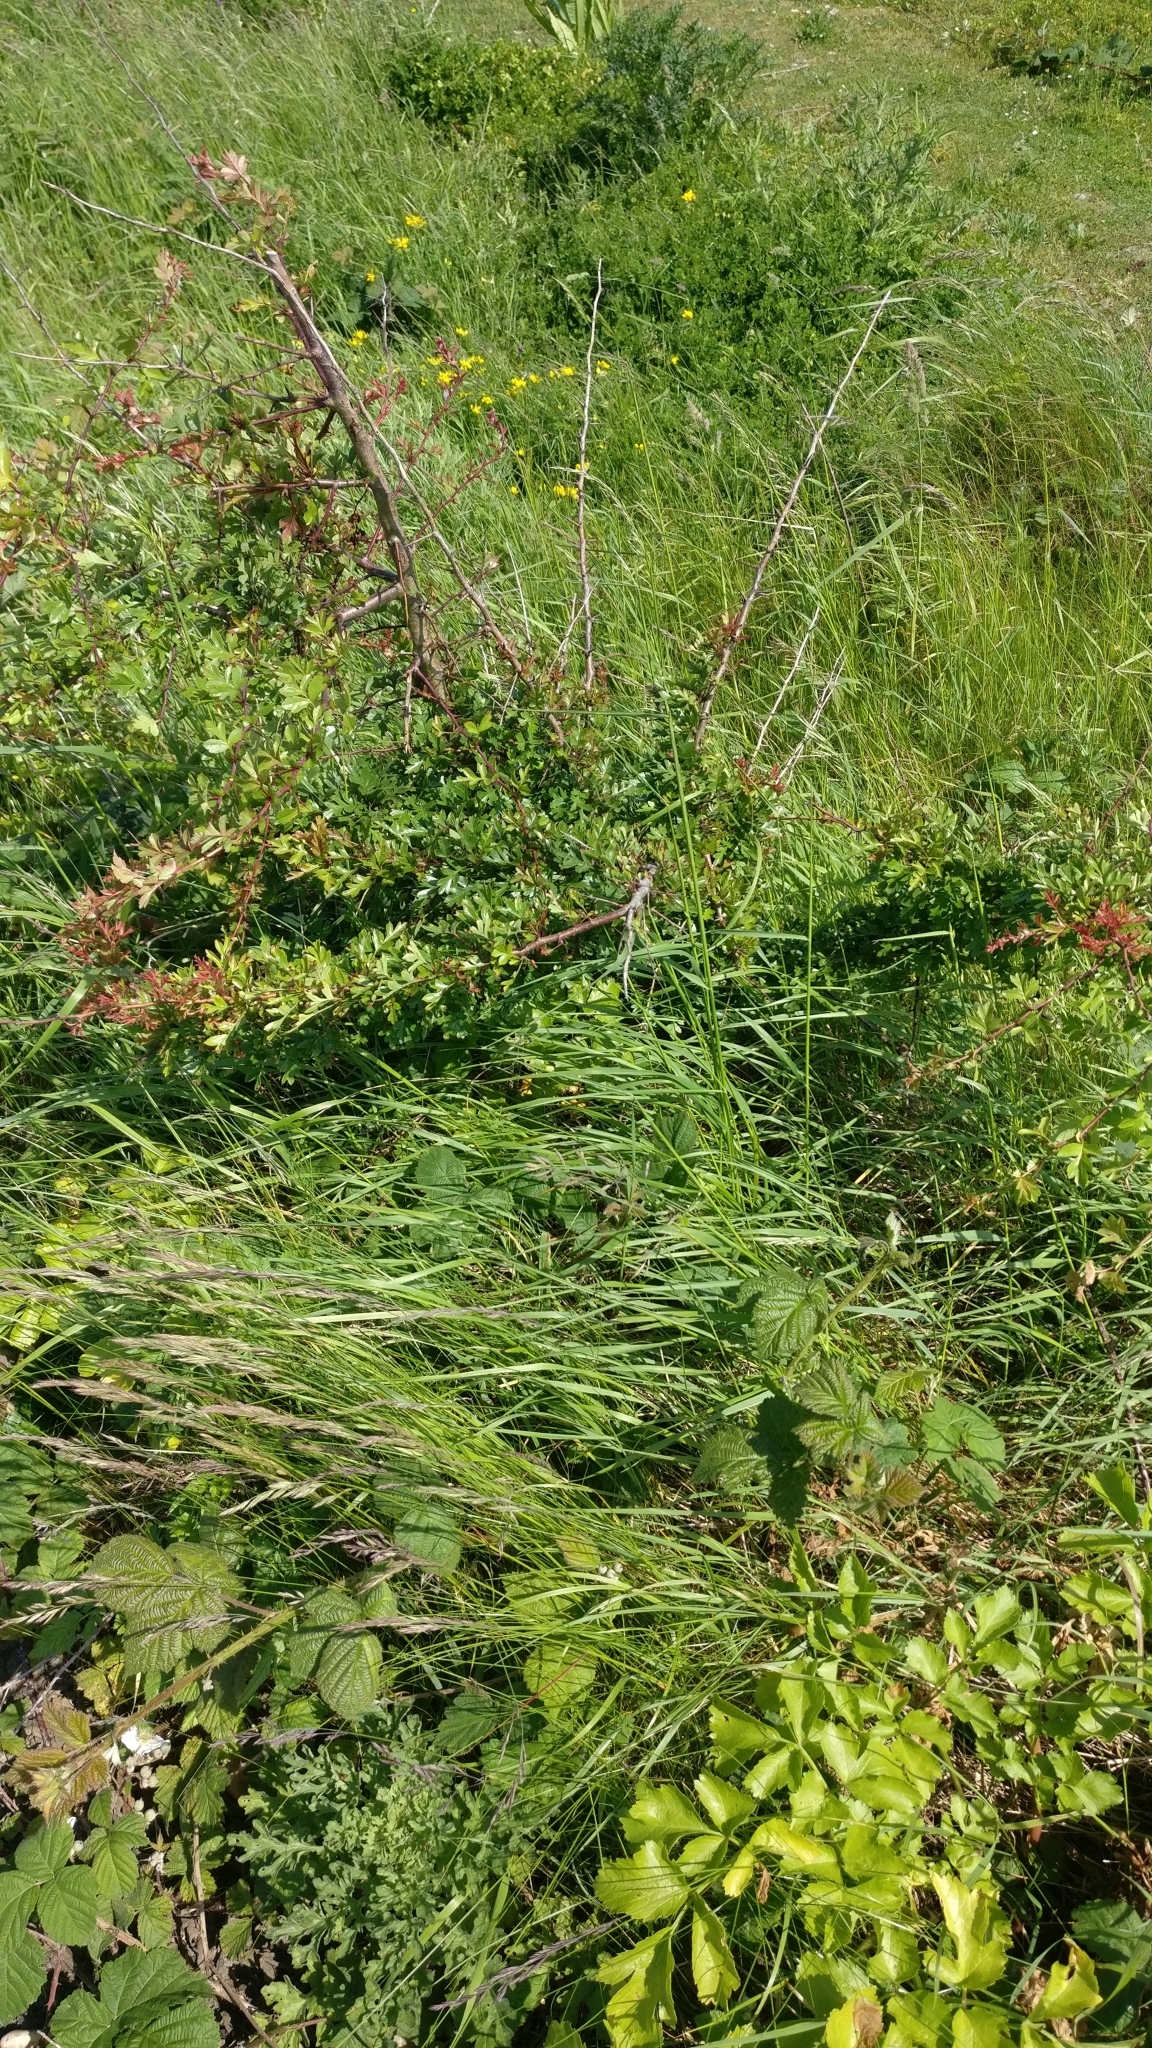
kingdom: Plantae
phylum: Tracheophyta
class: Magnoliopsida
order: Rosales
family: Rosaceae
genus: Crataegus
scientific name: Crataegus monogyna
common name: Hawthorn
